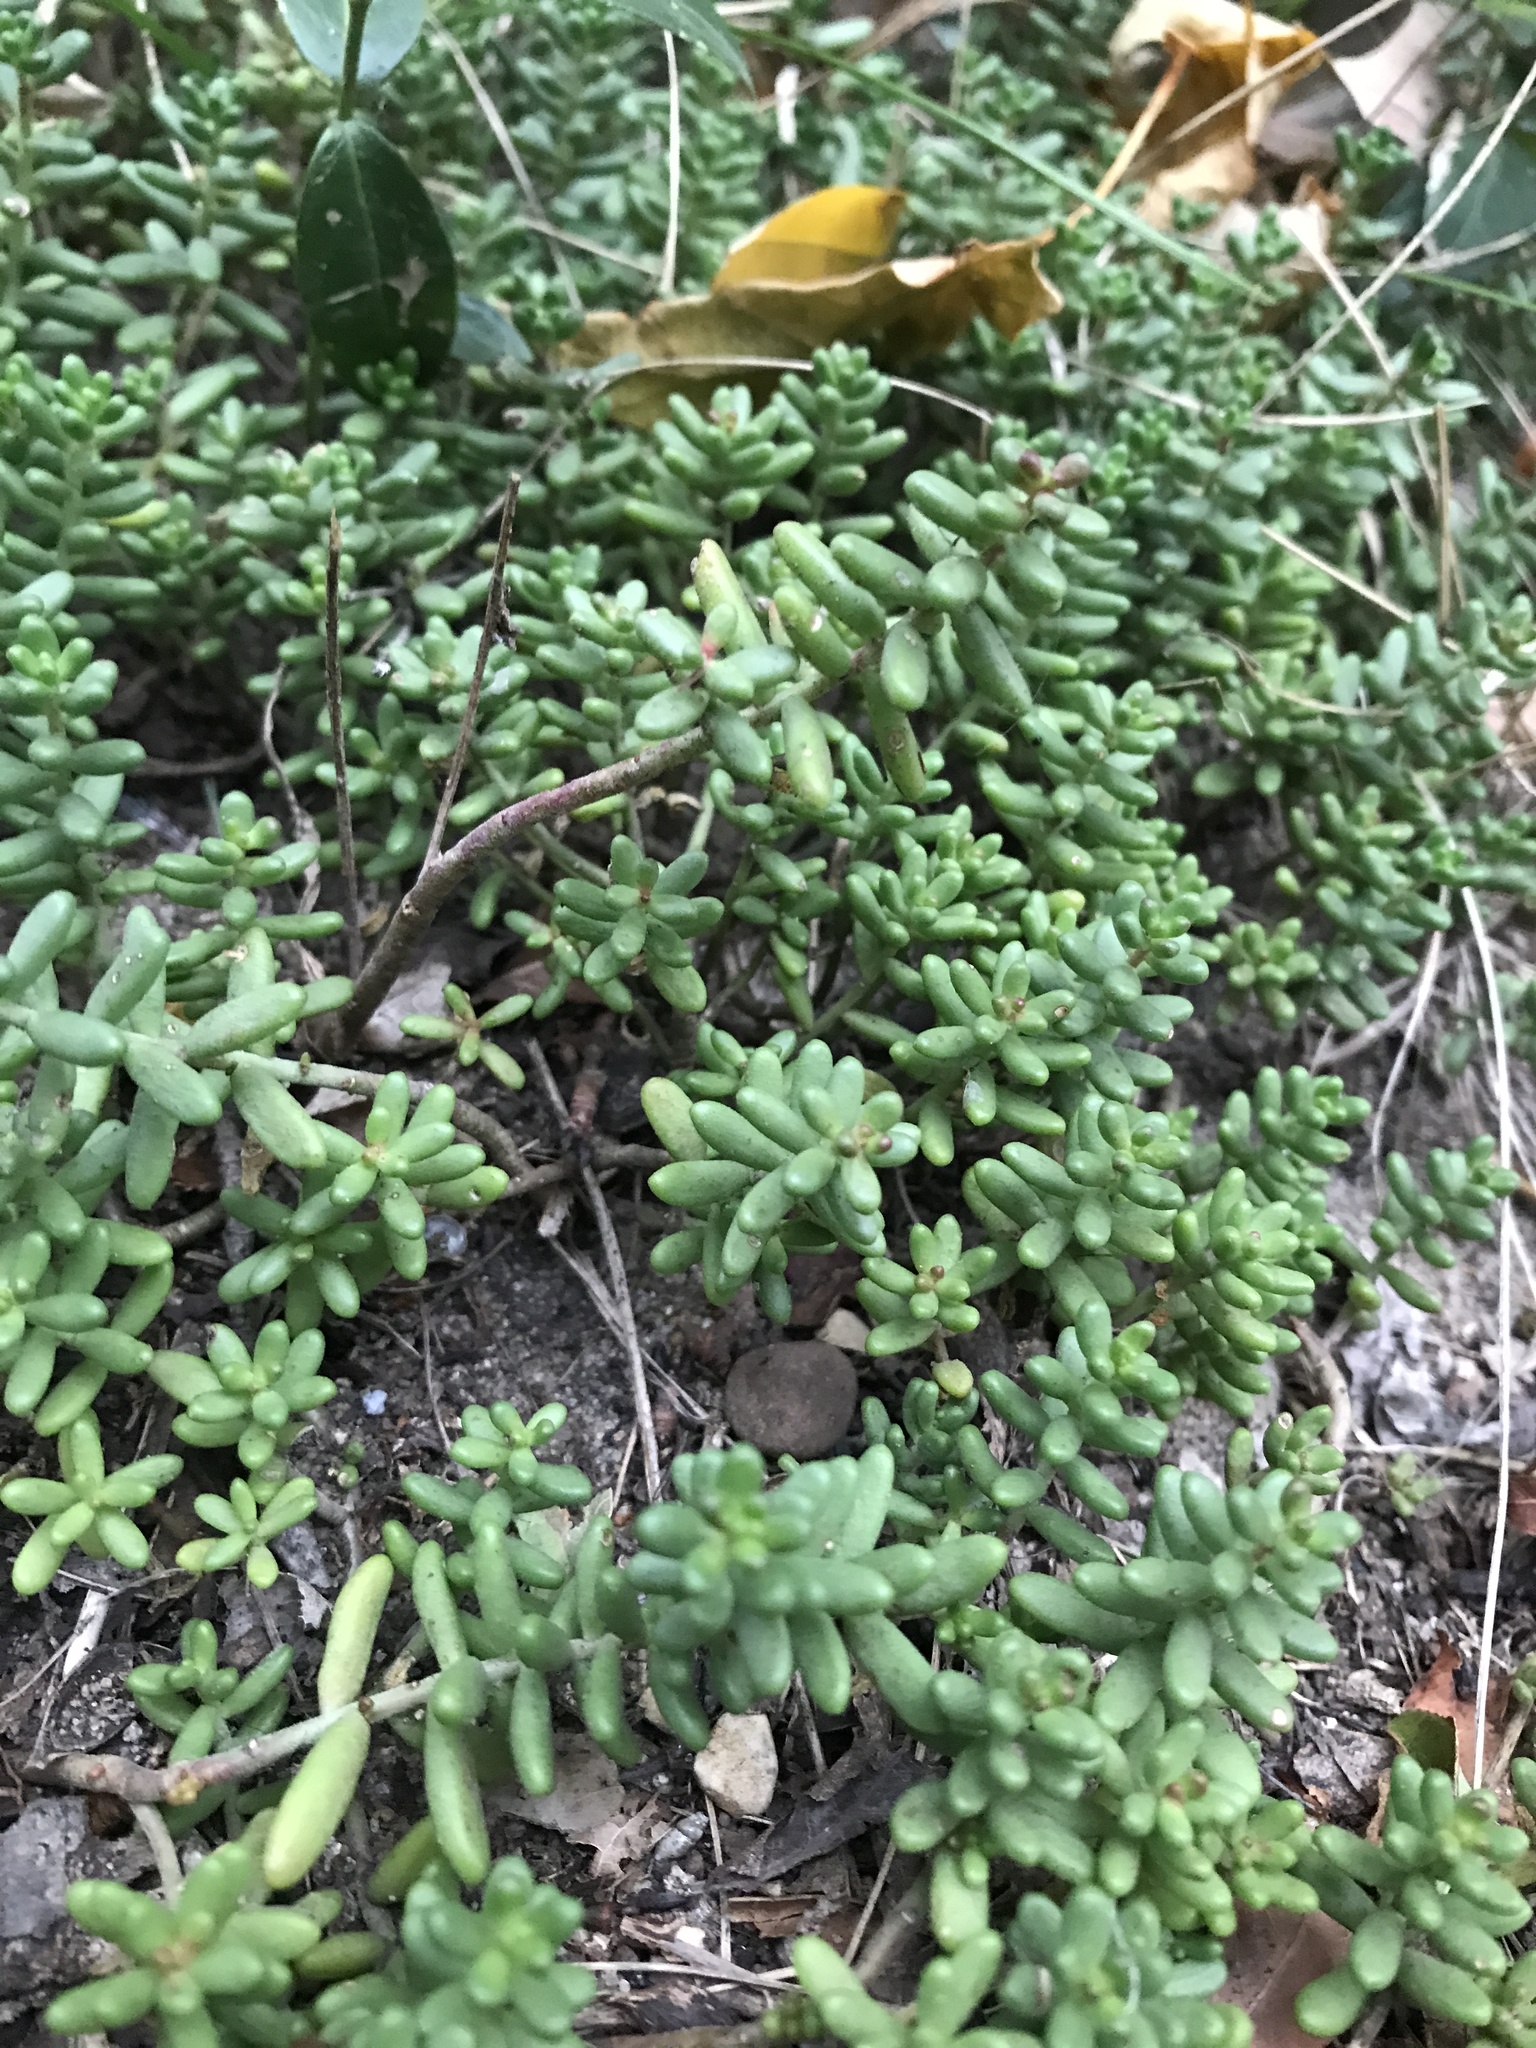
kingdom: Plantae
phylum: Tracheophyta
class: Magnoliopsida
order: Saxifragales
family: Crassulaceae
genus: Sedum
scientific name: Sedum album
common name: White stonecrop
